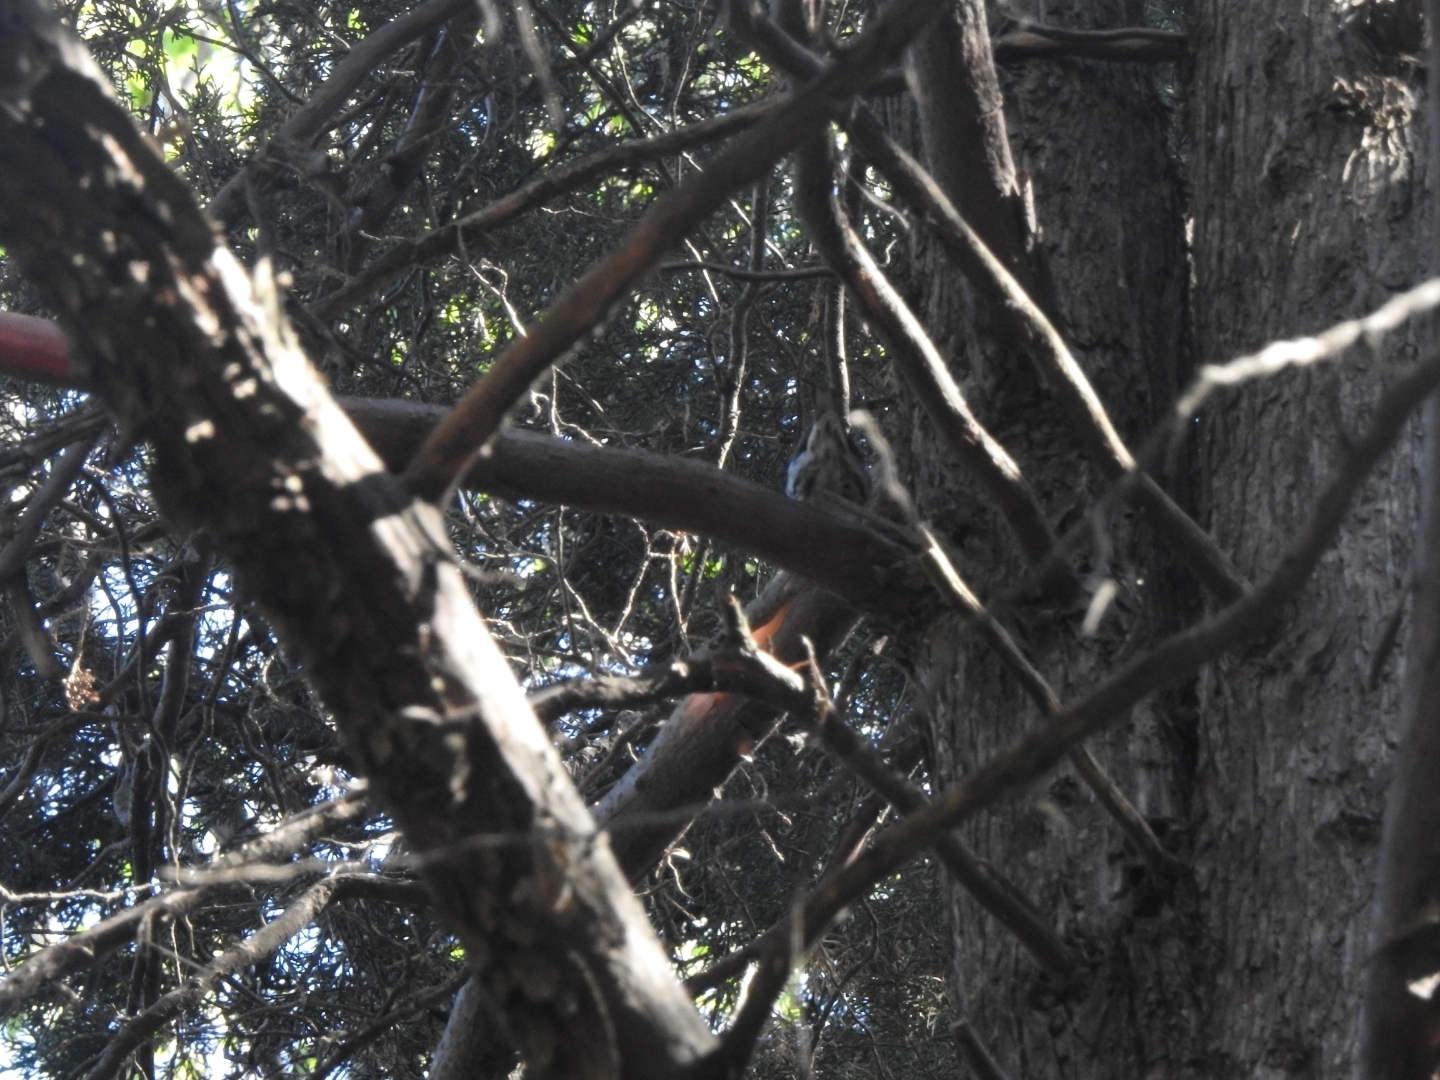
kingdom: Animalia
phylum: Chordata
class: Aves
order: Passeriformes
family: Parulidae
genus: Mniotilta
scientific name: Mniotilta varia
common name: Black-and-white warbler
